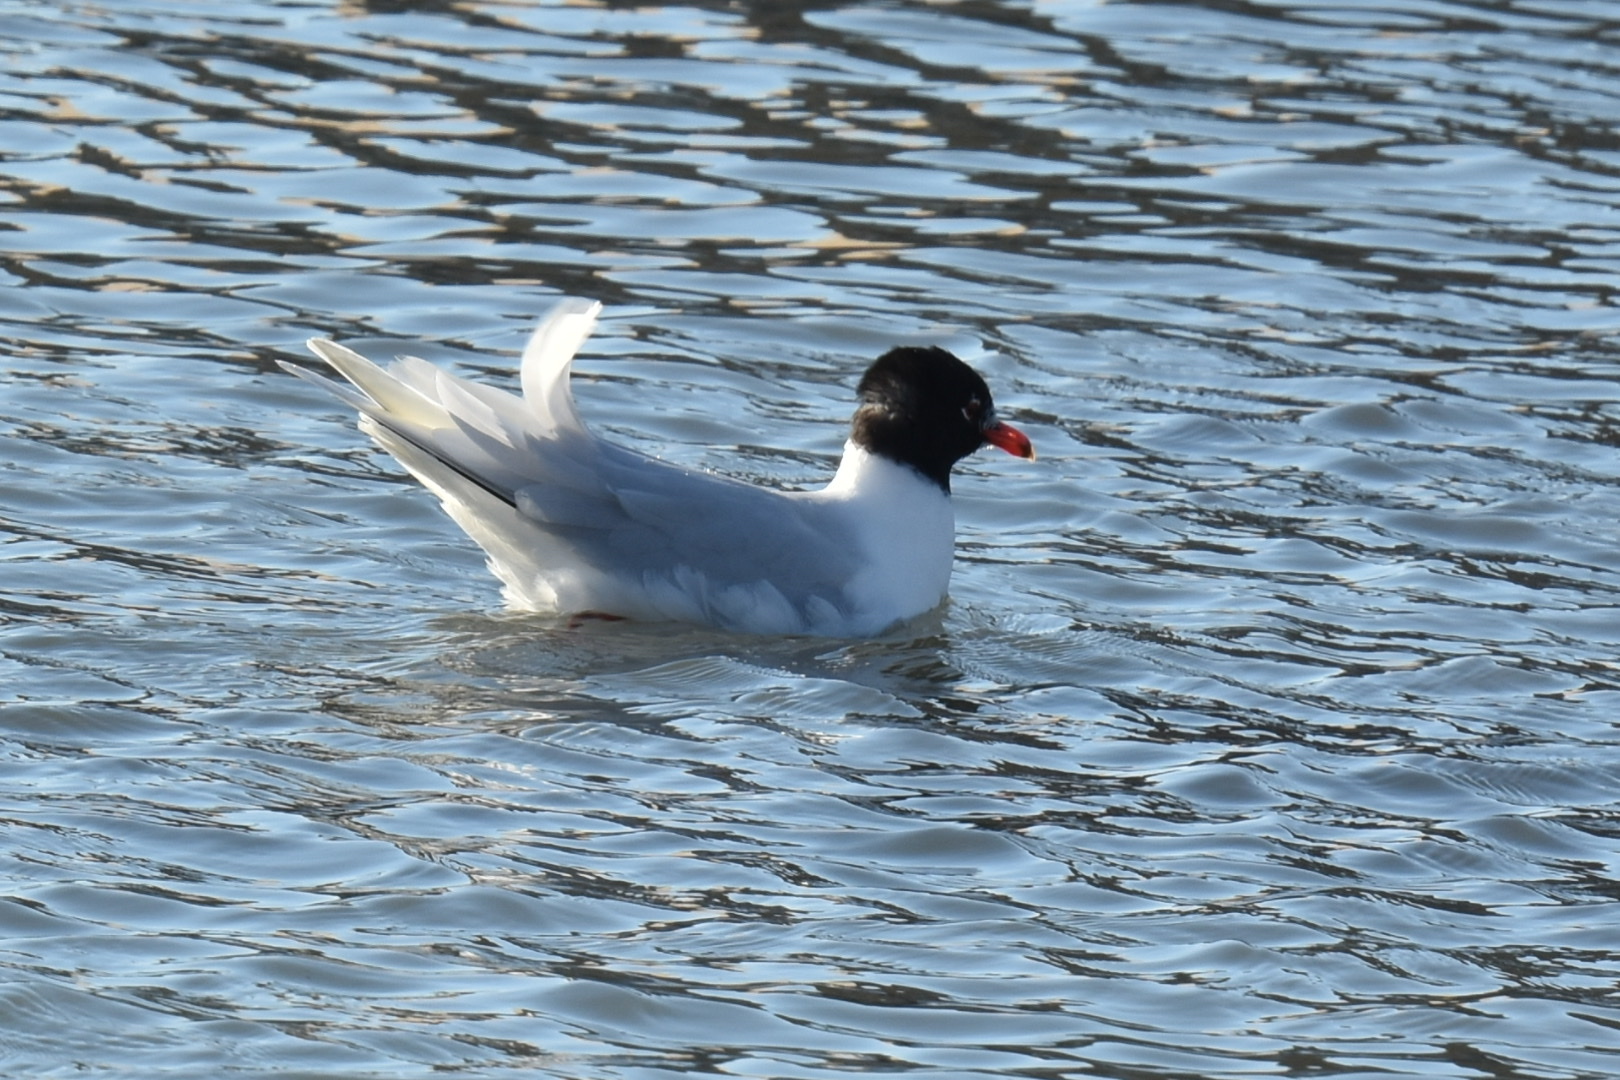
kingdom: Animalia
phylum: Chordata
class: Aves
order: Charadriiformes
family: Laridae
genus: Ichthyaetus
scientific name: Ichthyaetus melanocephalus
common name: Mediterranean gull
